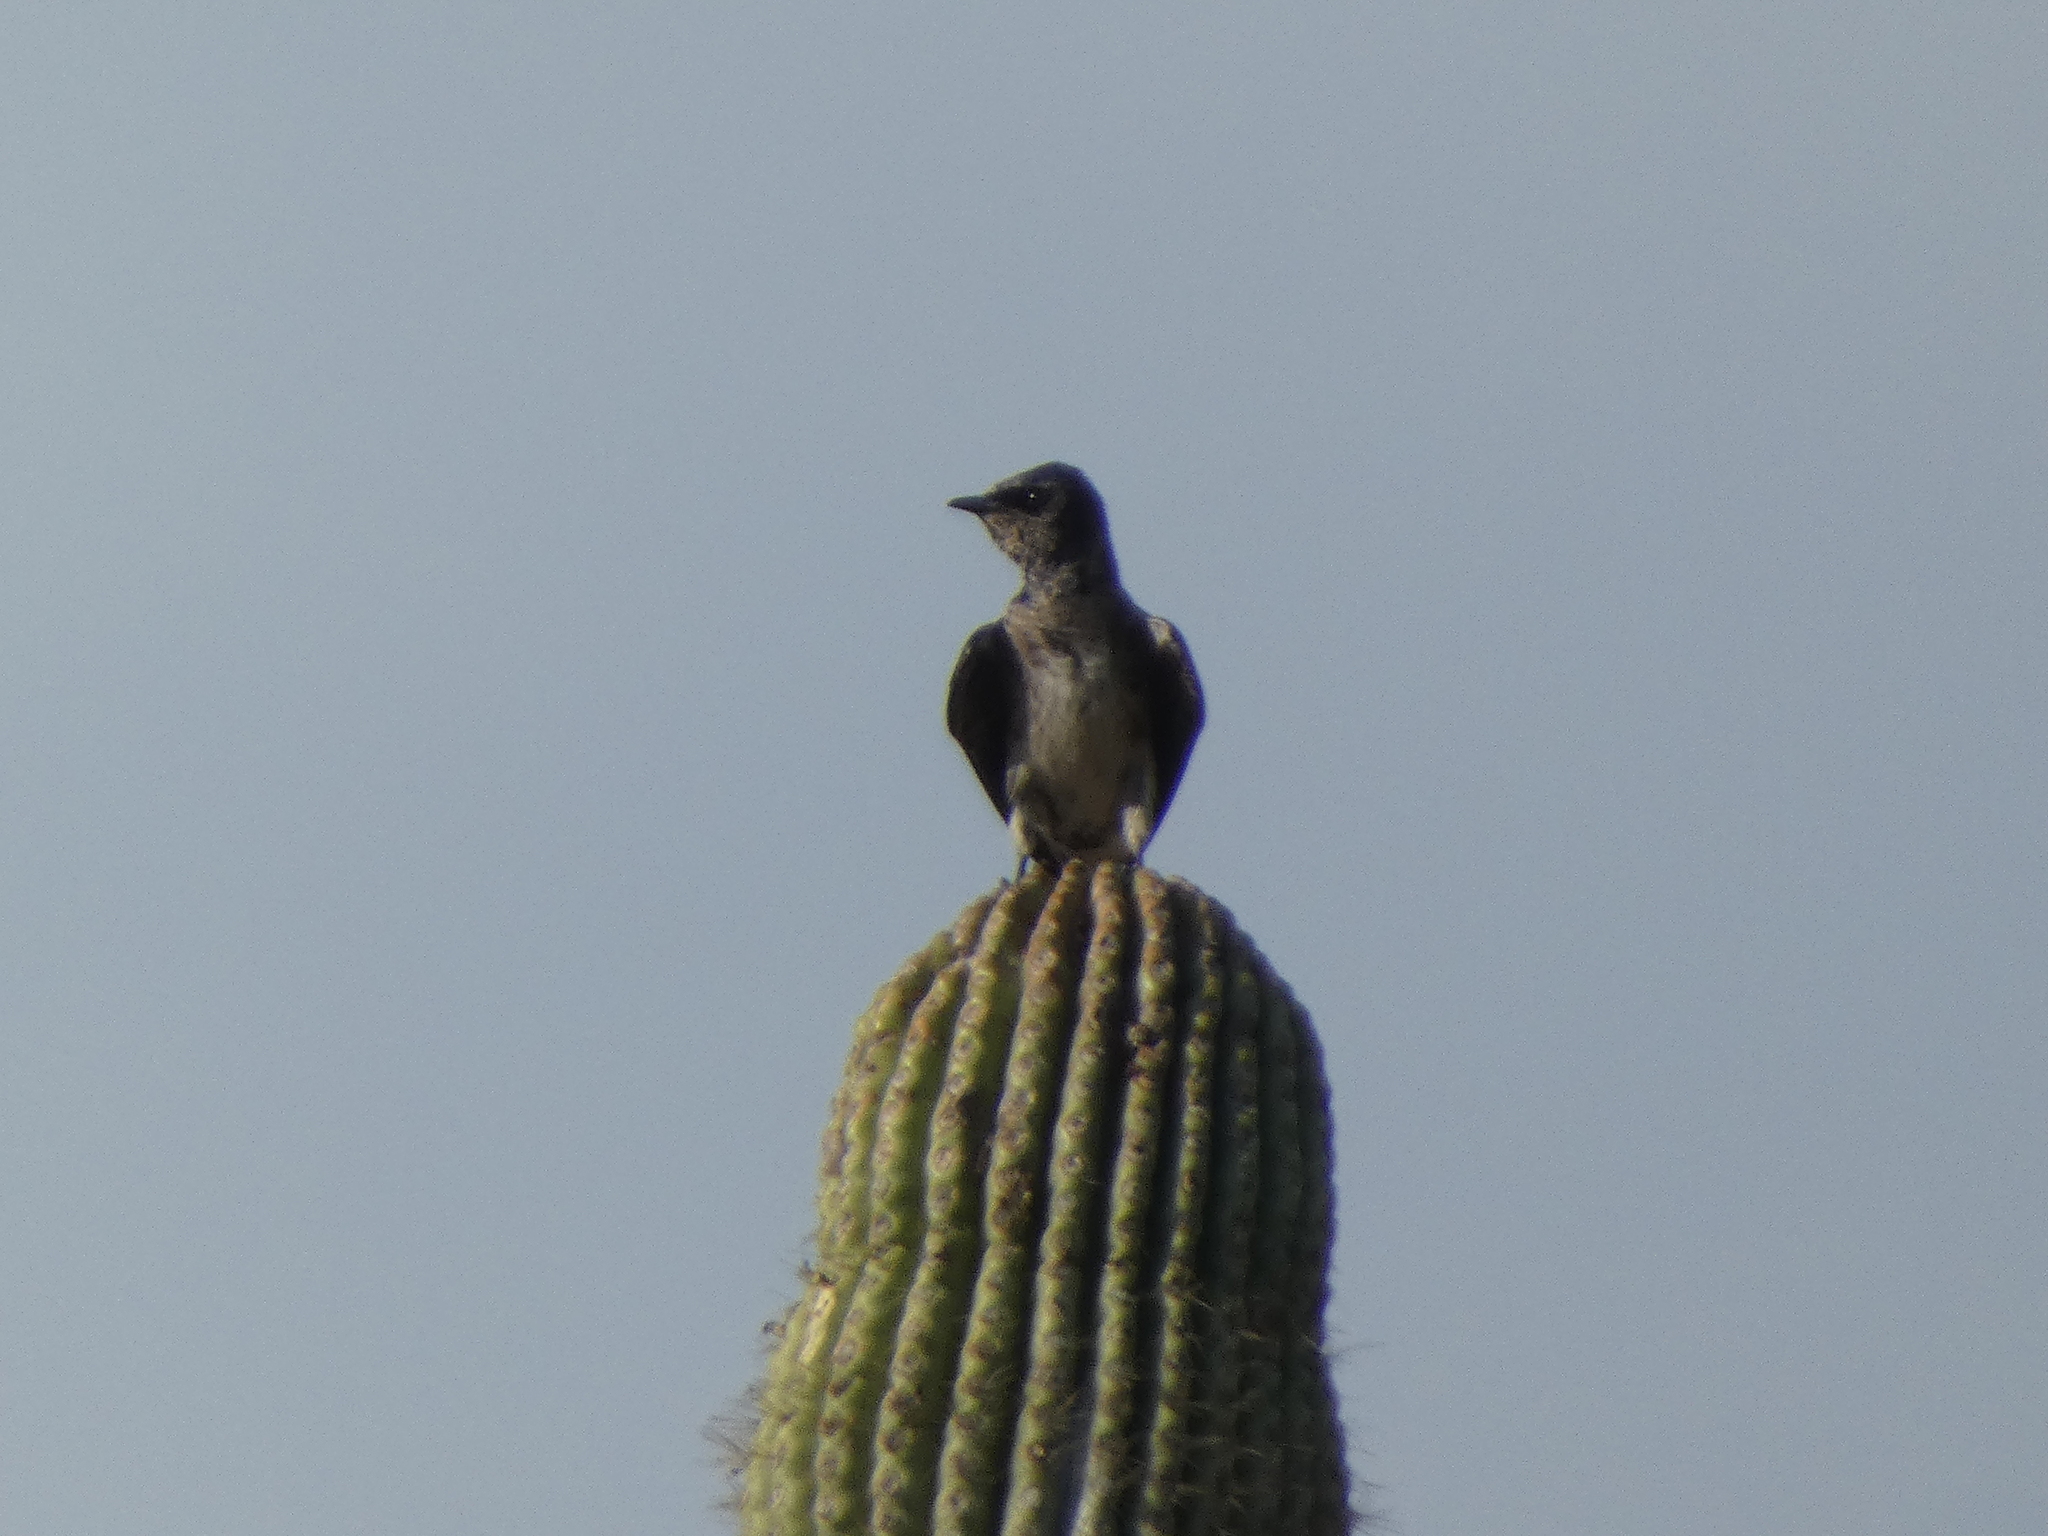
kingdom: Animalia
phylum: Chordata
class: Aves
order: Passeriformes
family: Hirundinidae
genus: Progne
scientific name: Progne subis
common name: Purple martin
